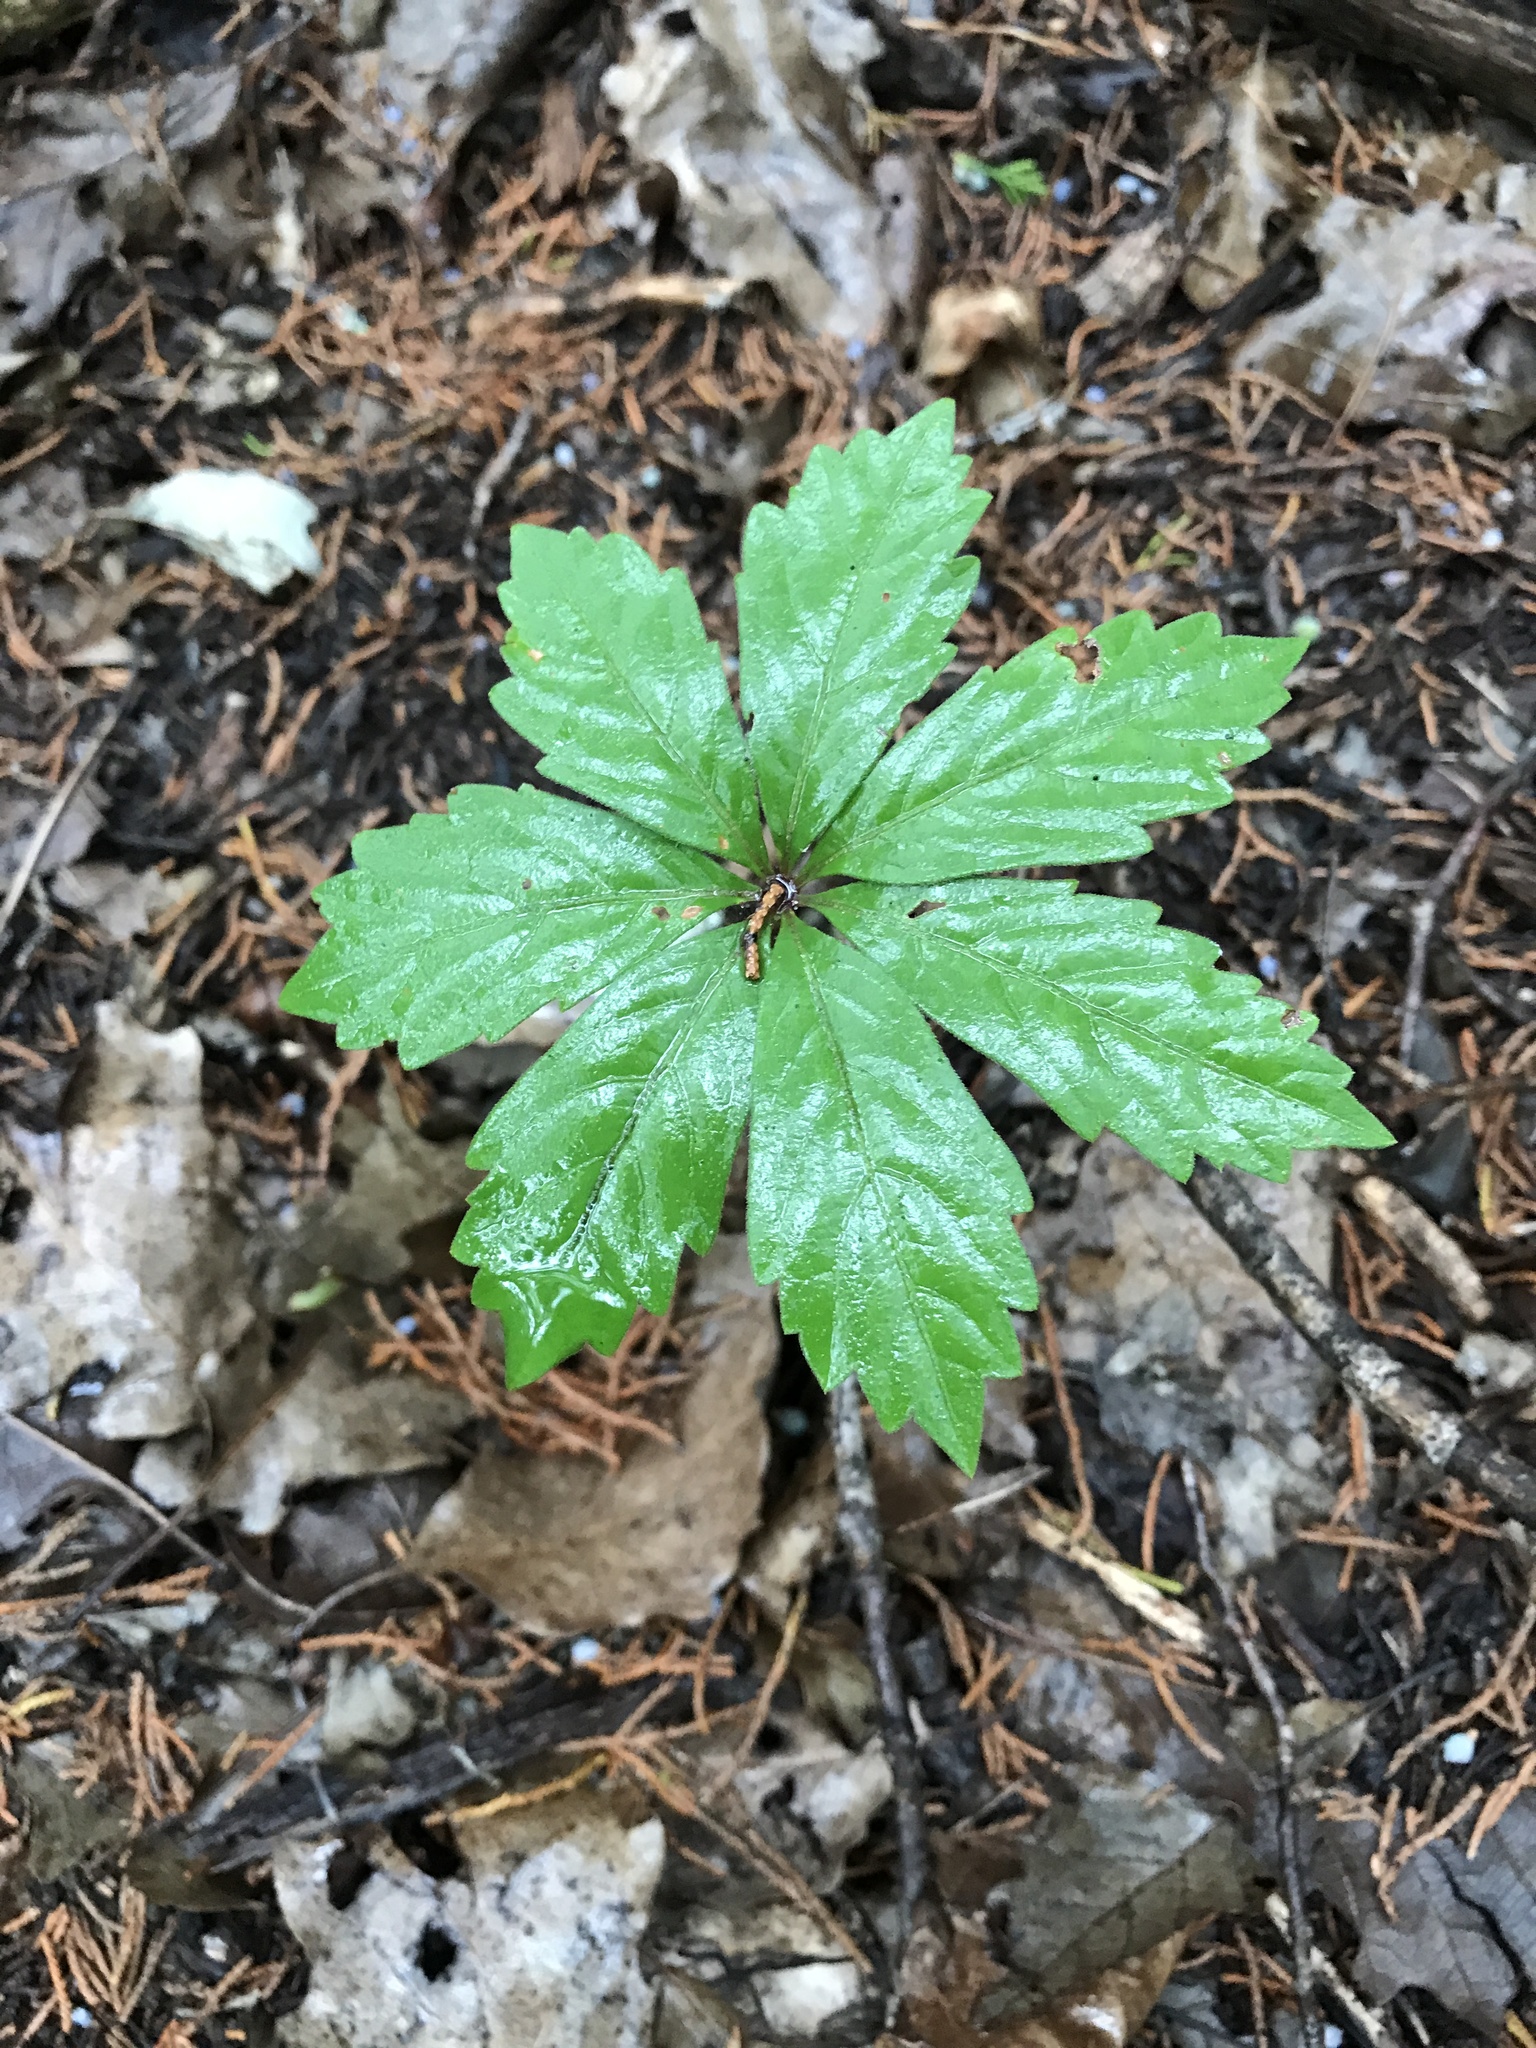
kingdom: Plantae
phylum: Tracheophyta
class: Magnoliopsida
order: Vitales
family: Vitaceae
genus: Parthenocissus
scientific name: Parthenocissus heptaphylla
